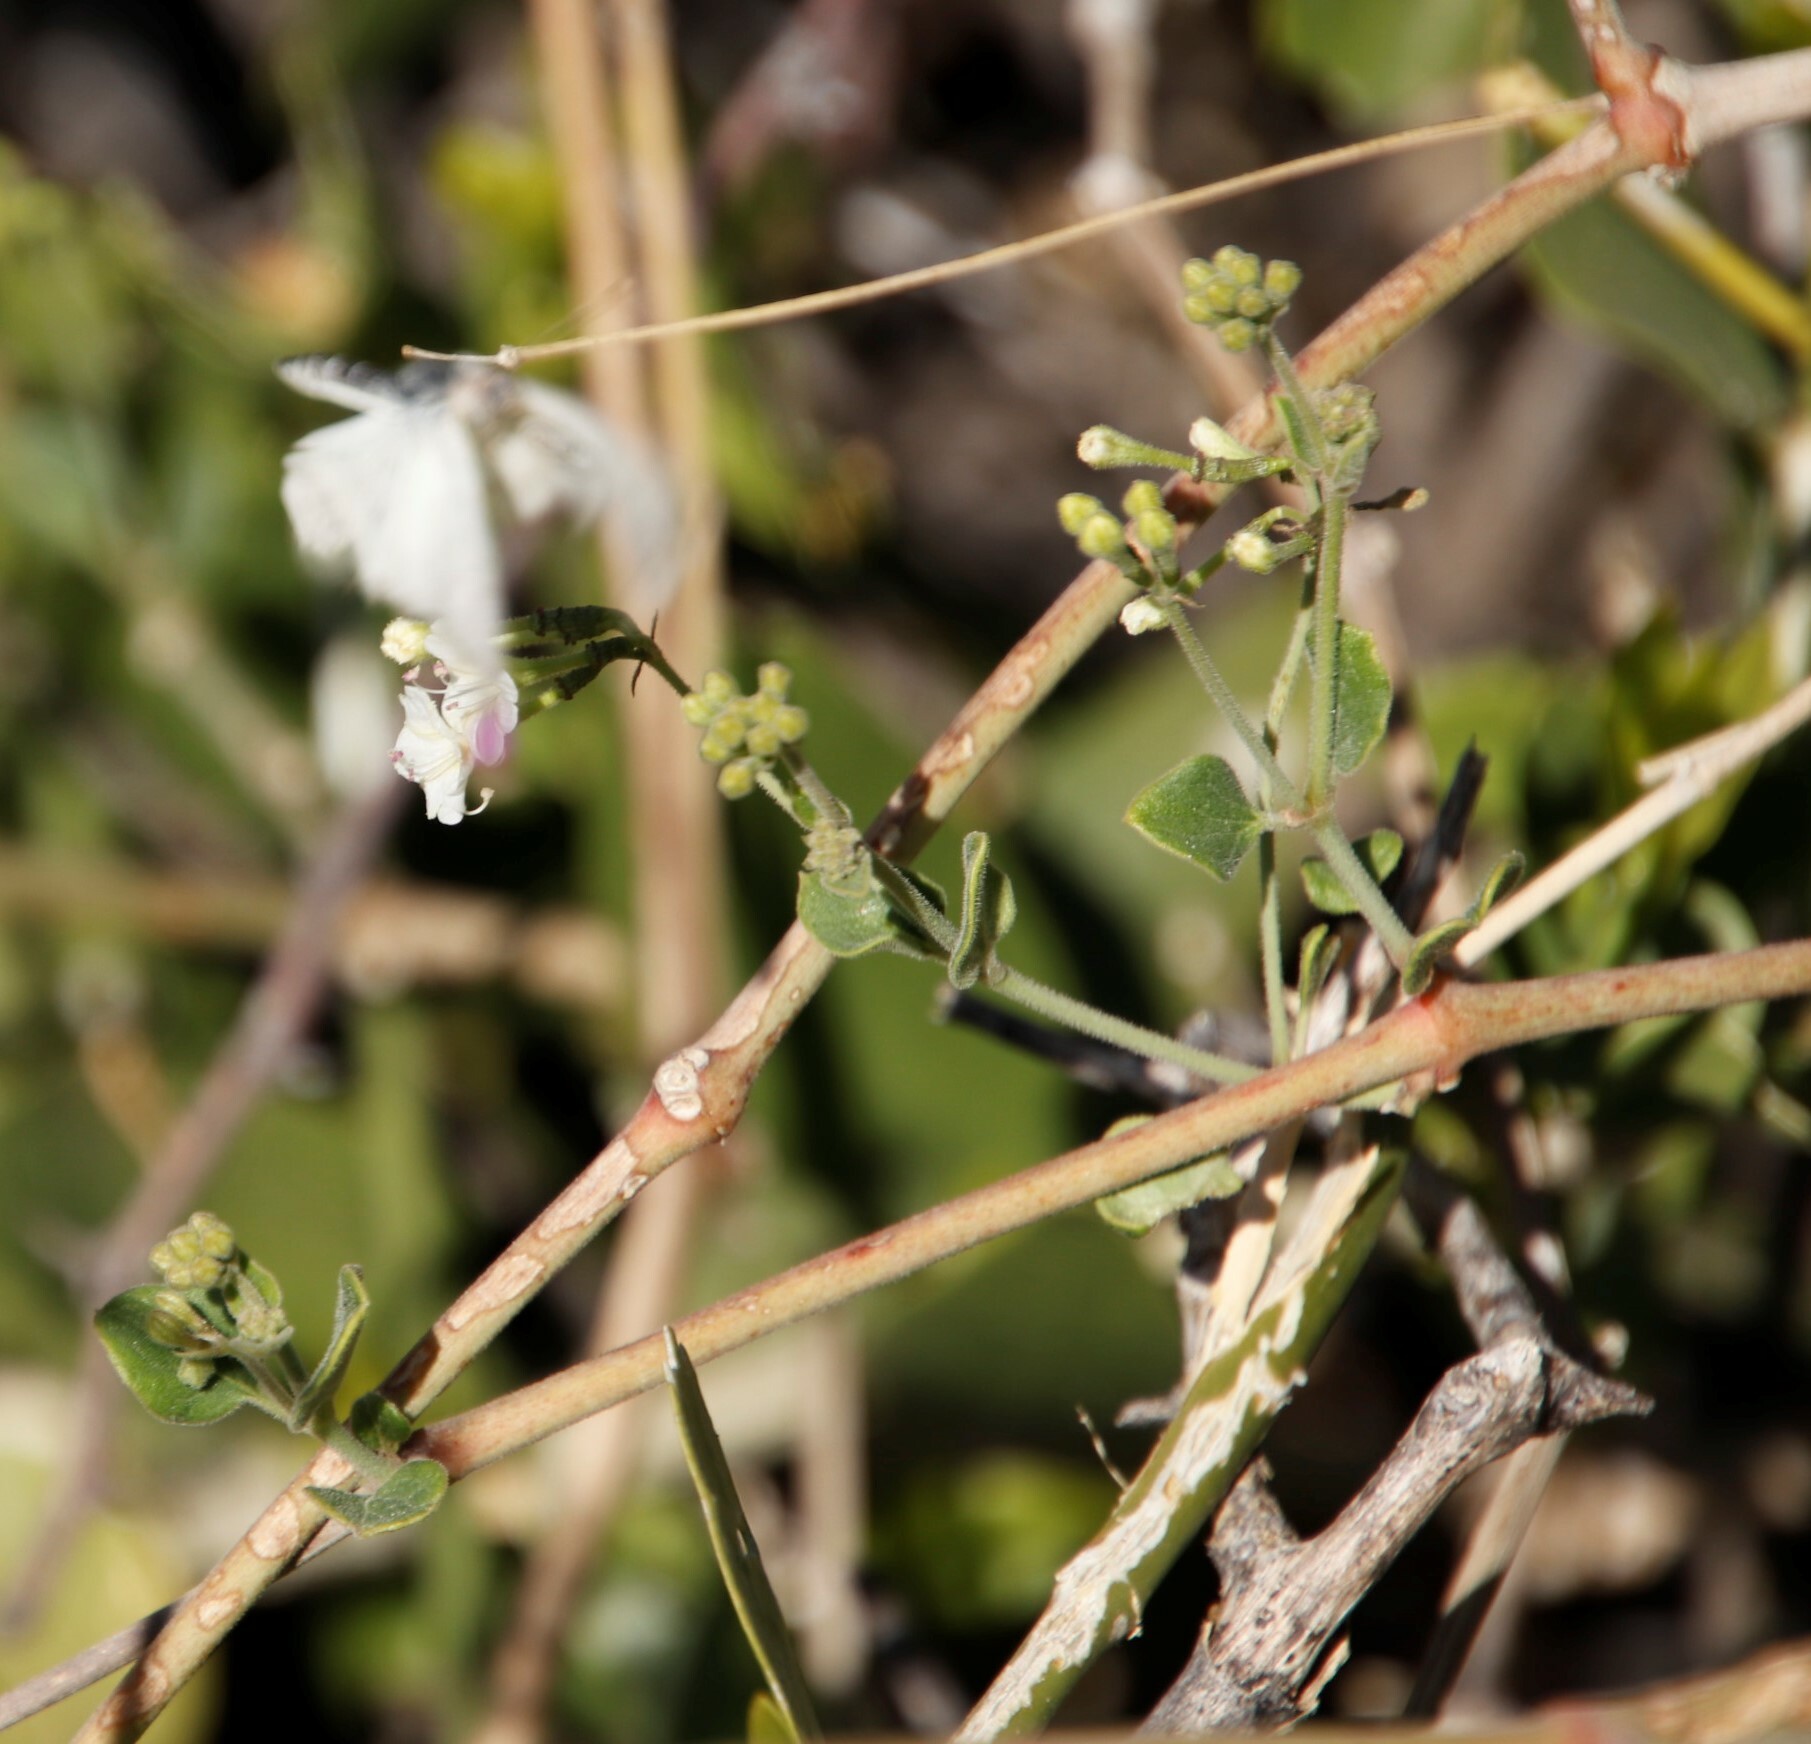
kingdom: Animalia
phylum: Arthropoda
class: Insecta
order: Lepidoptera
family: Pieridae
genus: Nepheronia
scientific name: Nepheronia buquetii
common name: Plain vagrant
